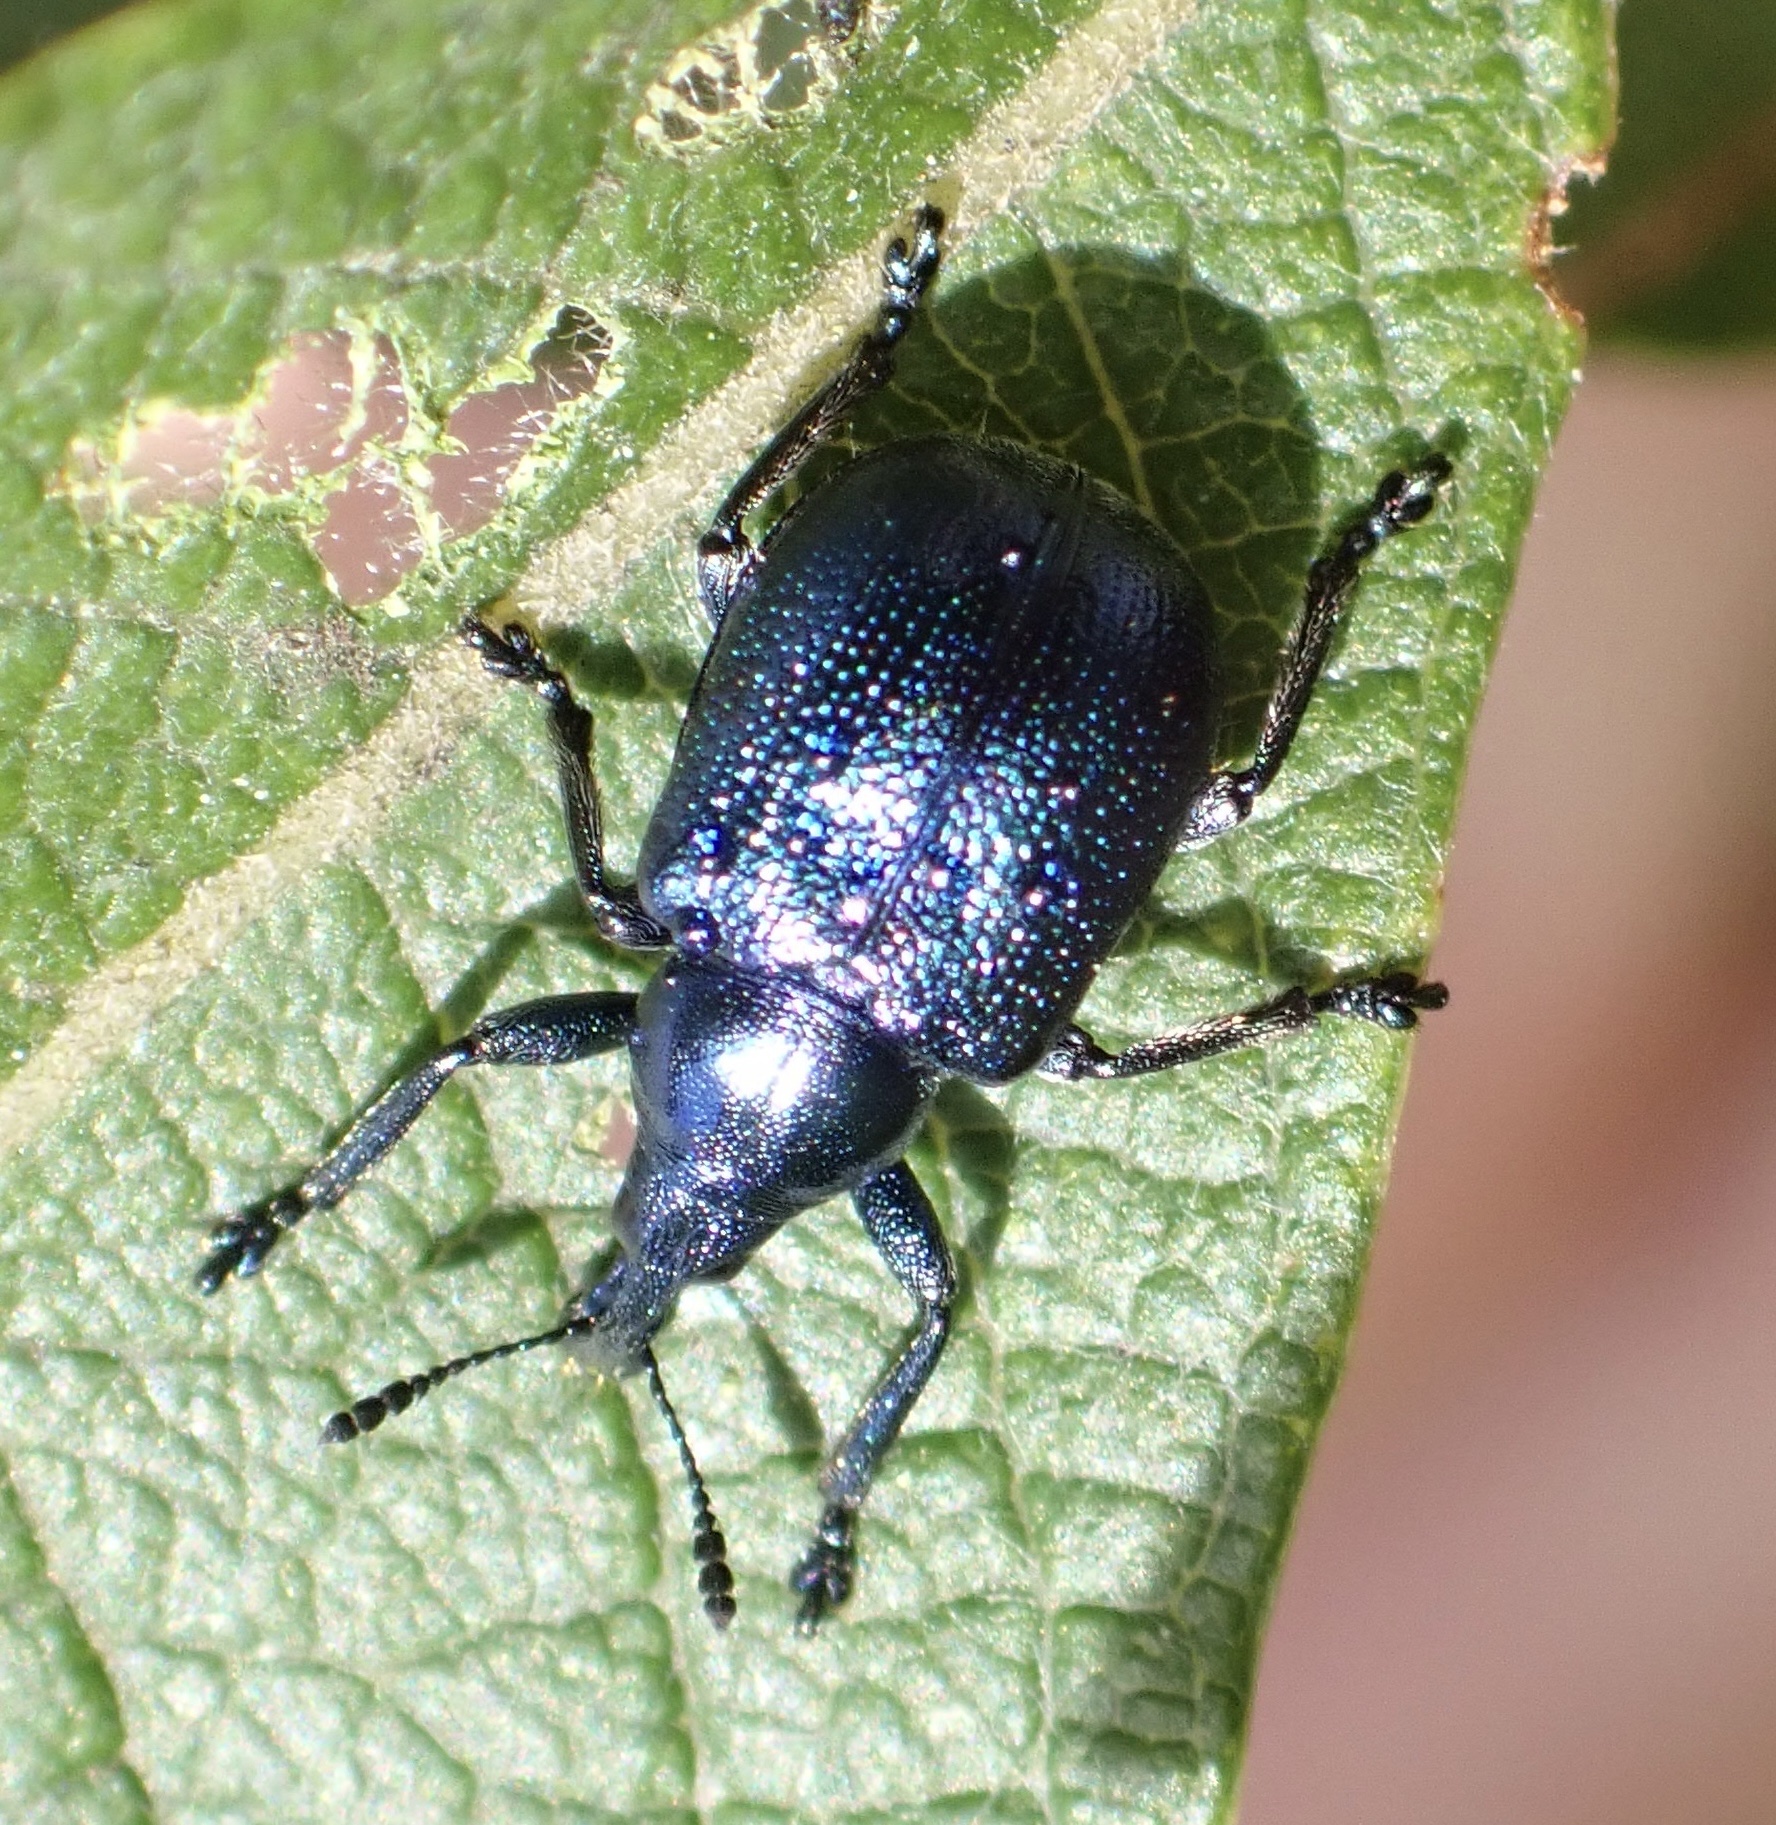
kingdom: Animalia
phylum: Arthropoda
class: Insecta
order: Coleoptera
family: Attelabidae
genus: Byctiscus
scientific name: Byctiscus betulae
